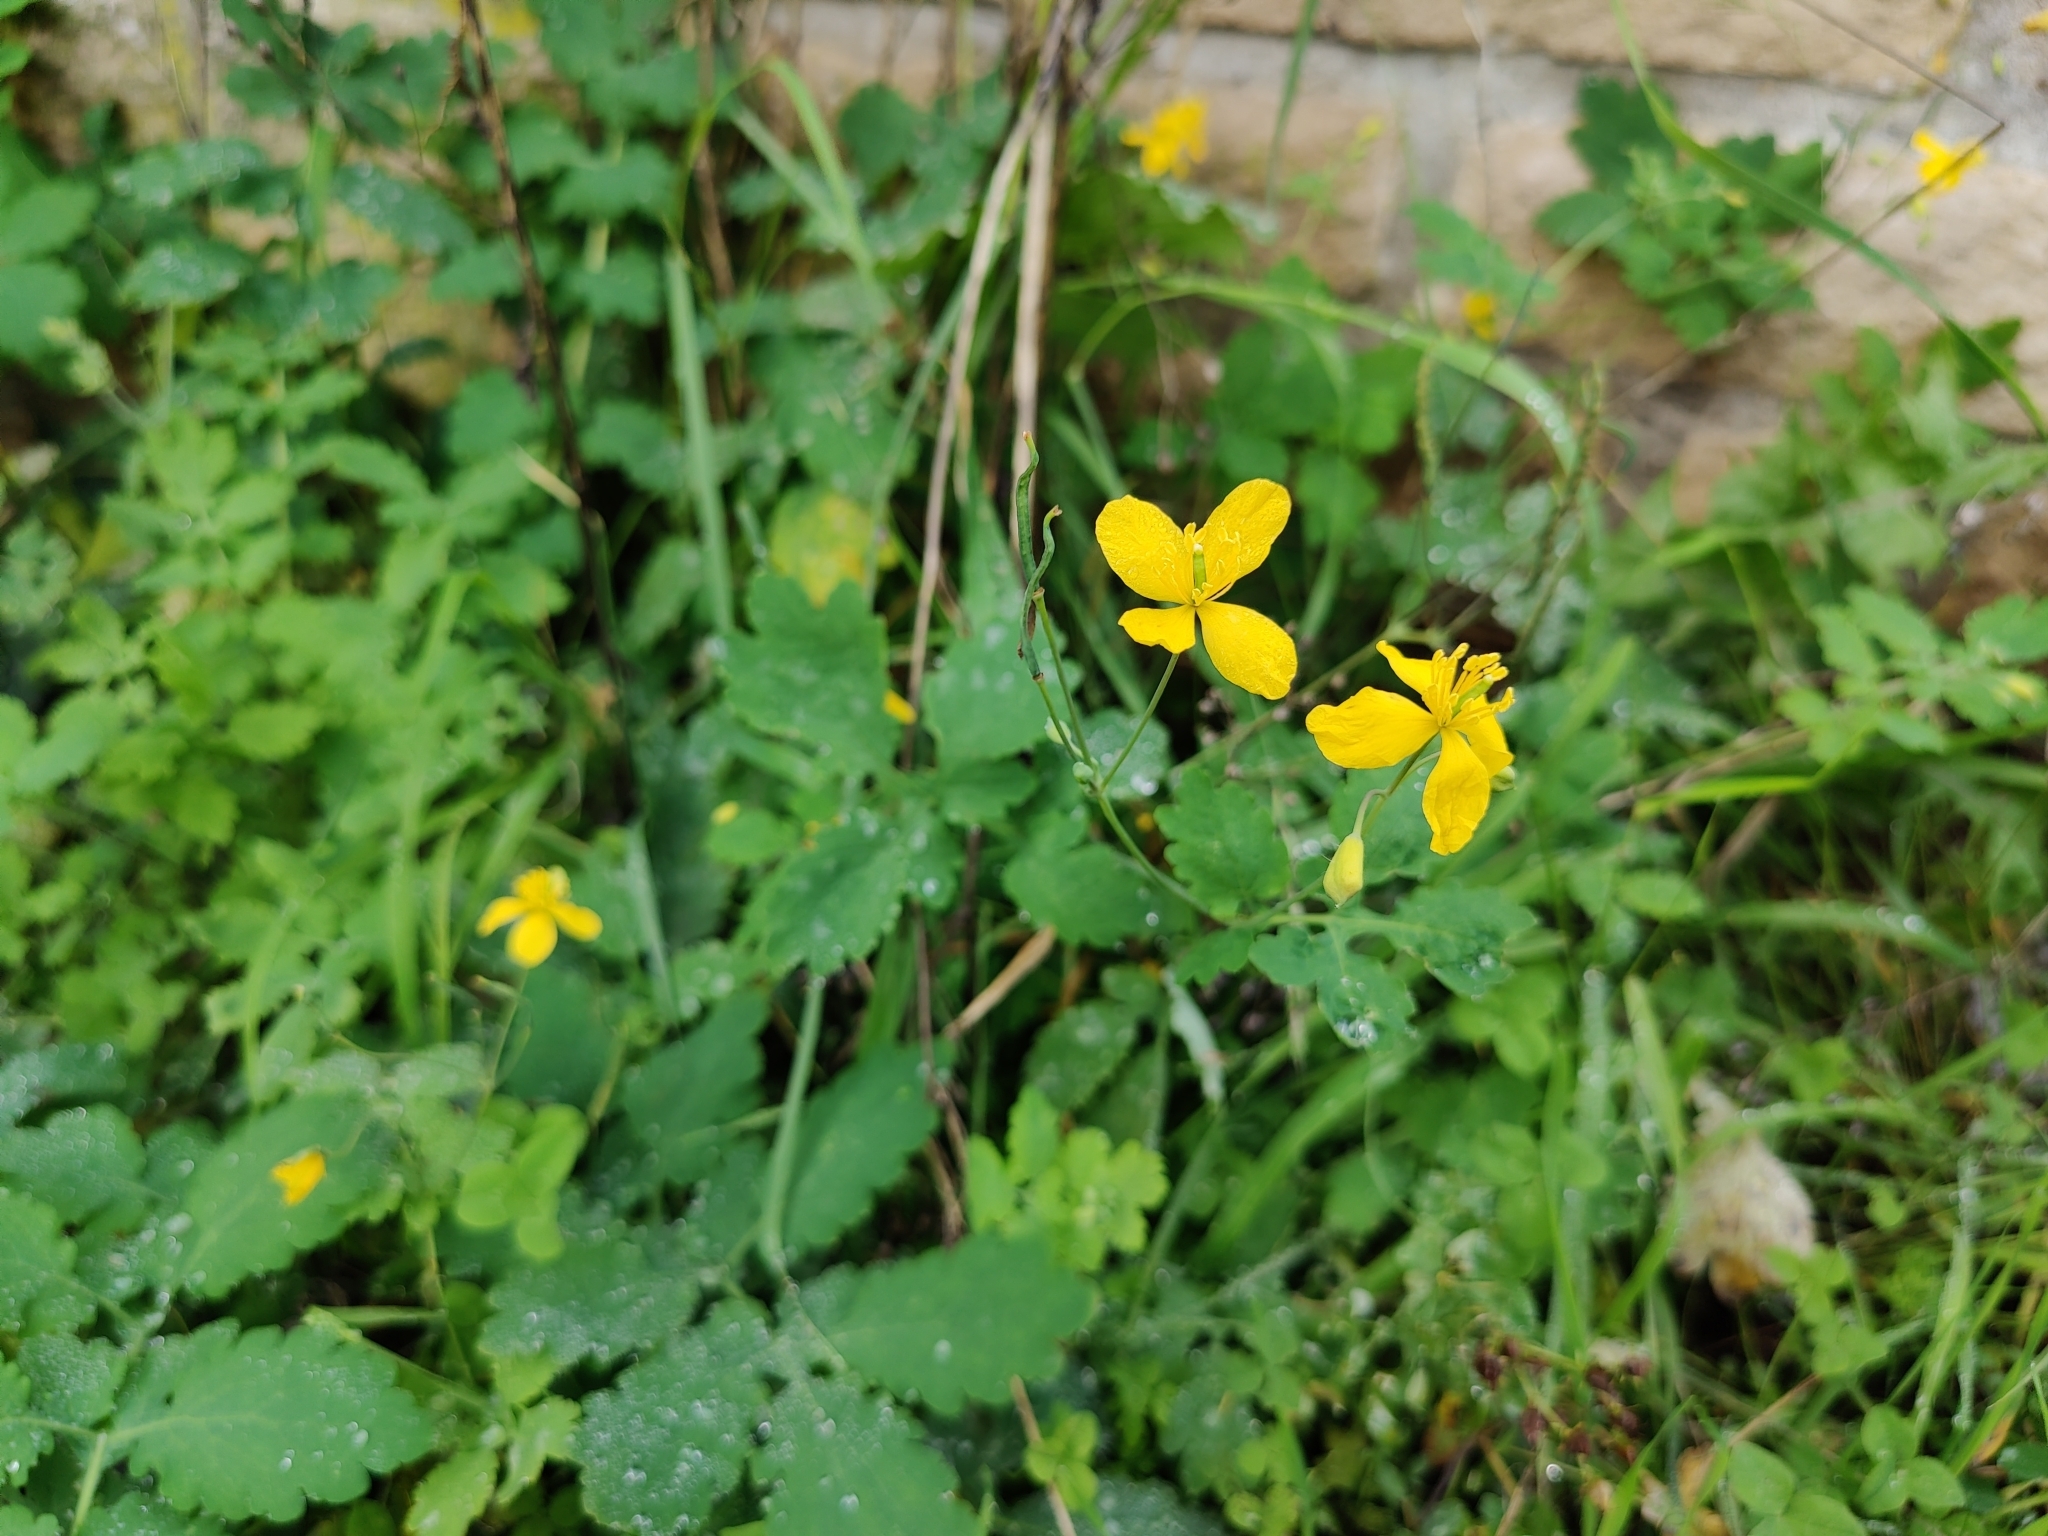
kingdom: Plantae
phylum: Tracheophyta
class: Magnoliopsida
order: Ranunculales
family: Papaveraceae
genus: Chelidonium
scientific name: Chelidonium majus
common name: Greater celandine
